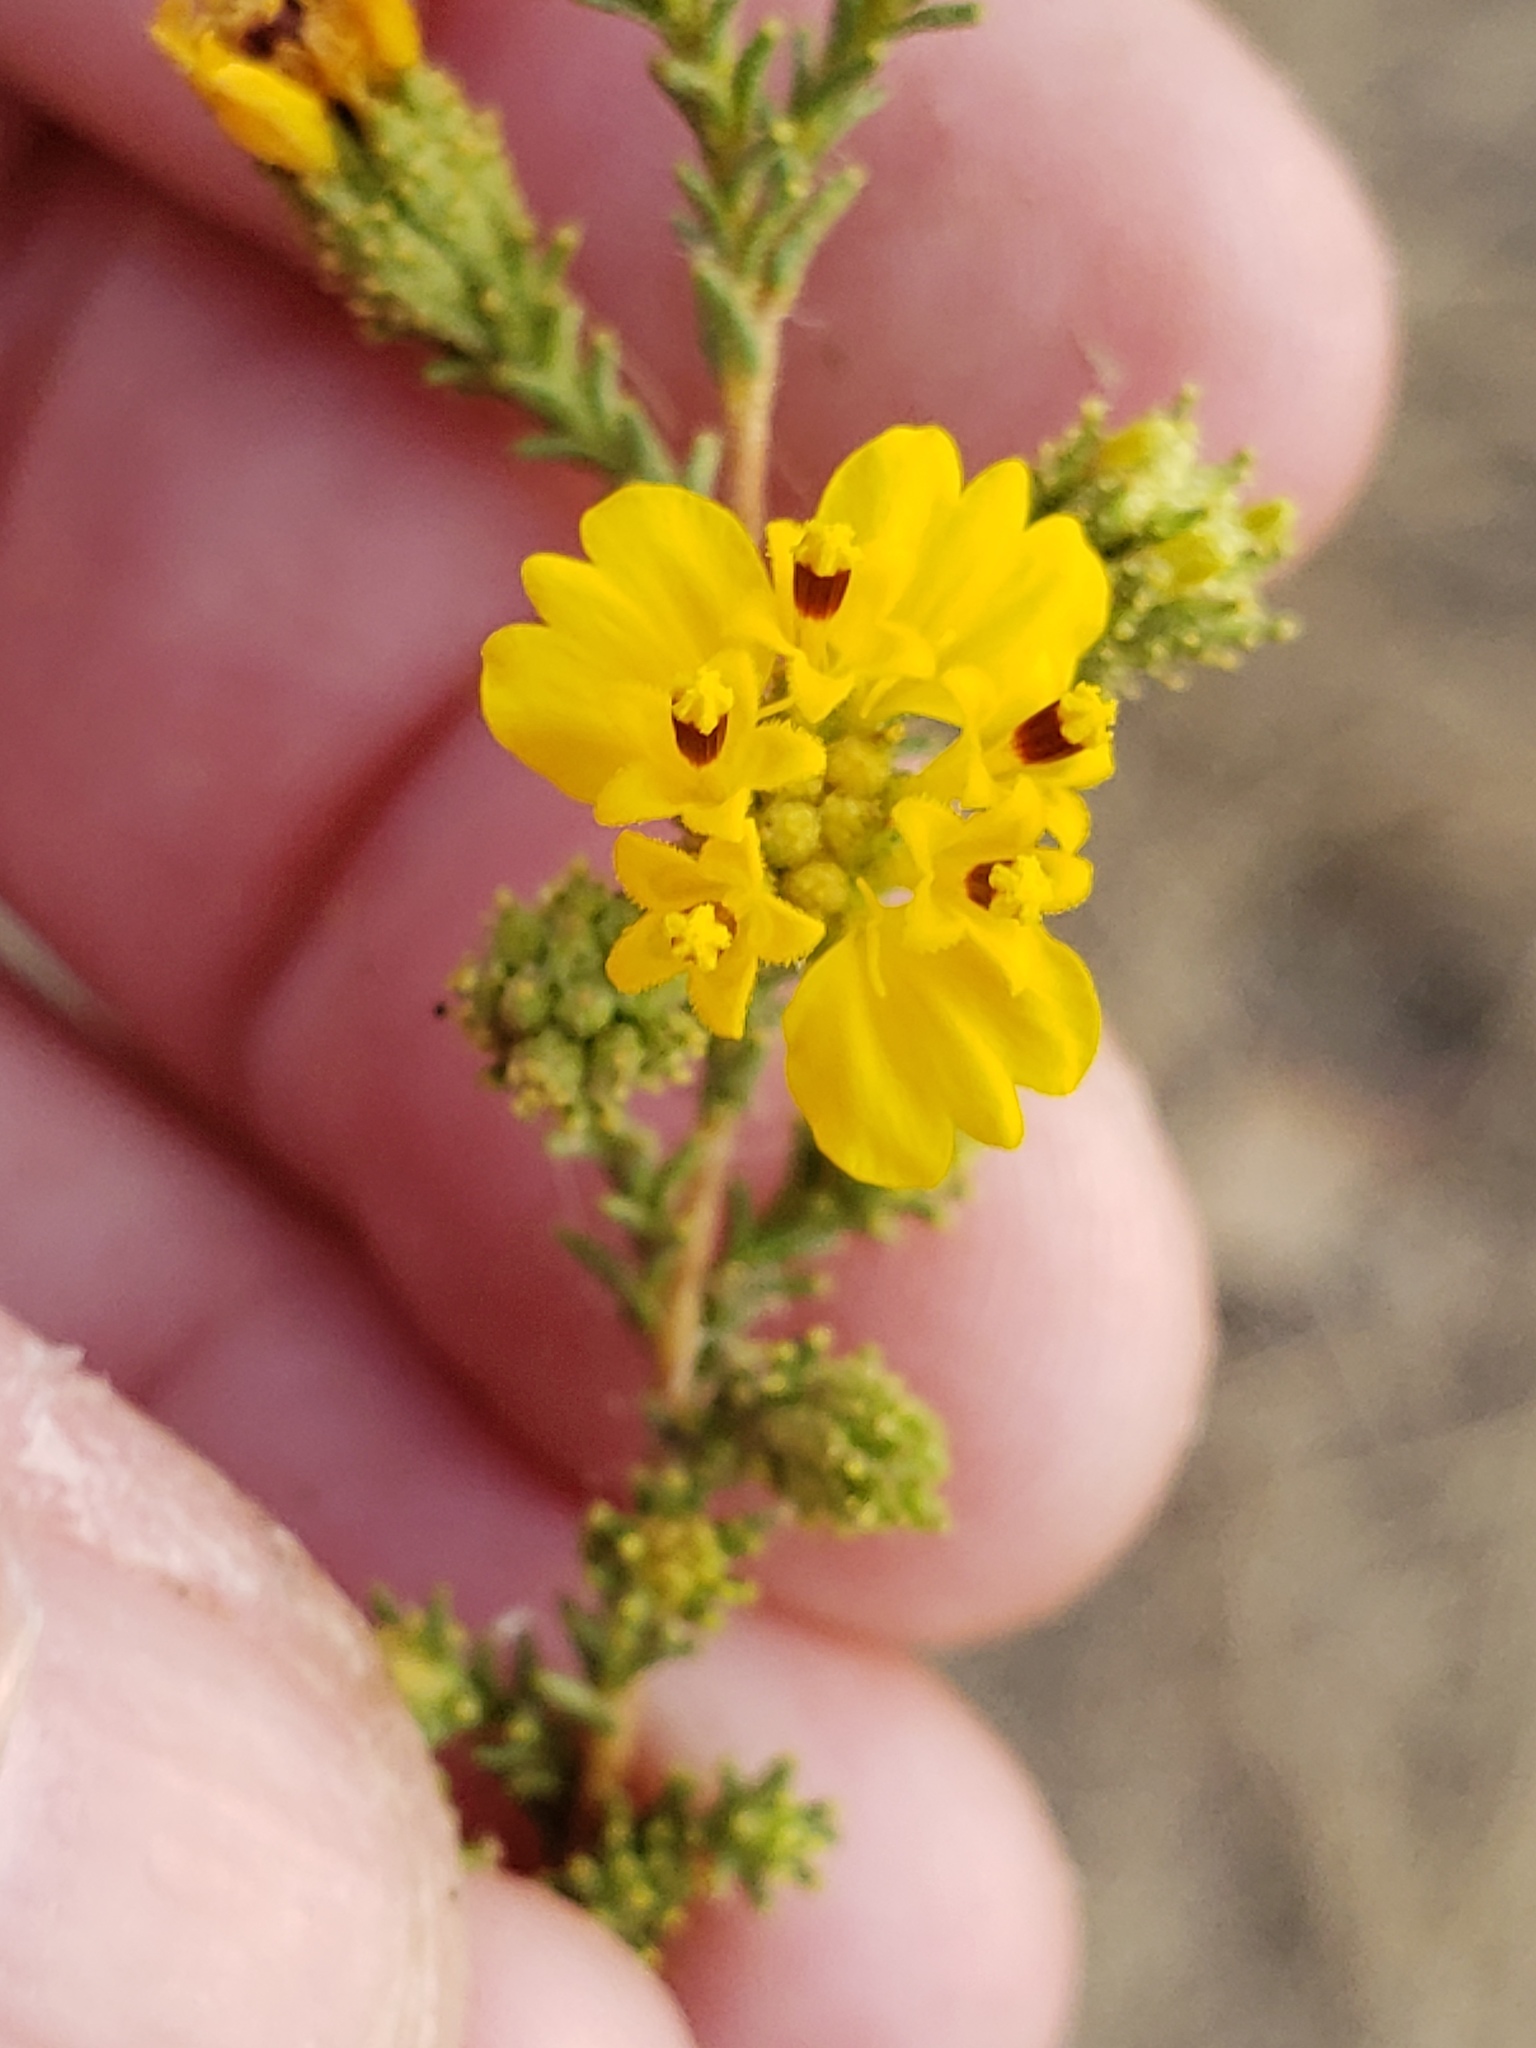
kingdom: Plantae
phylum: Tracheophyta
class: Magnoliopsida
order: Asterales
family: Asteraceae
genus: Holocarpha
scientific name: Holocarpha virgata
